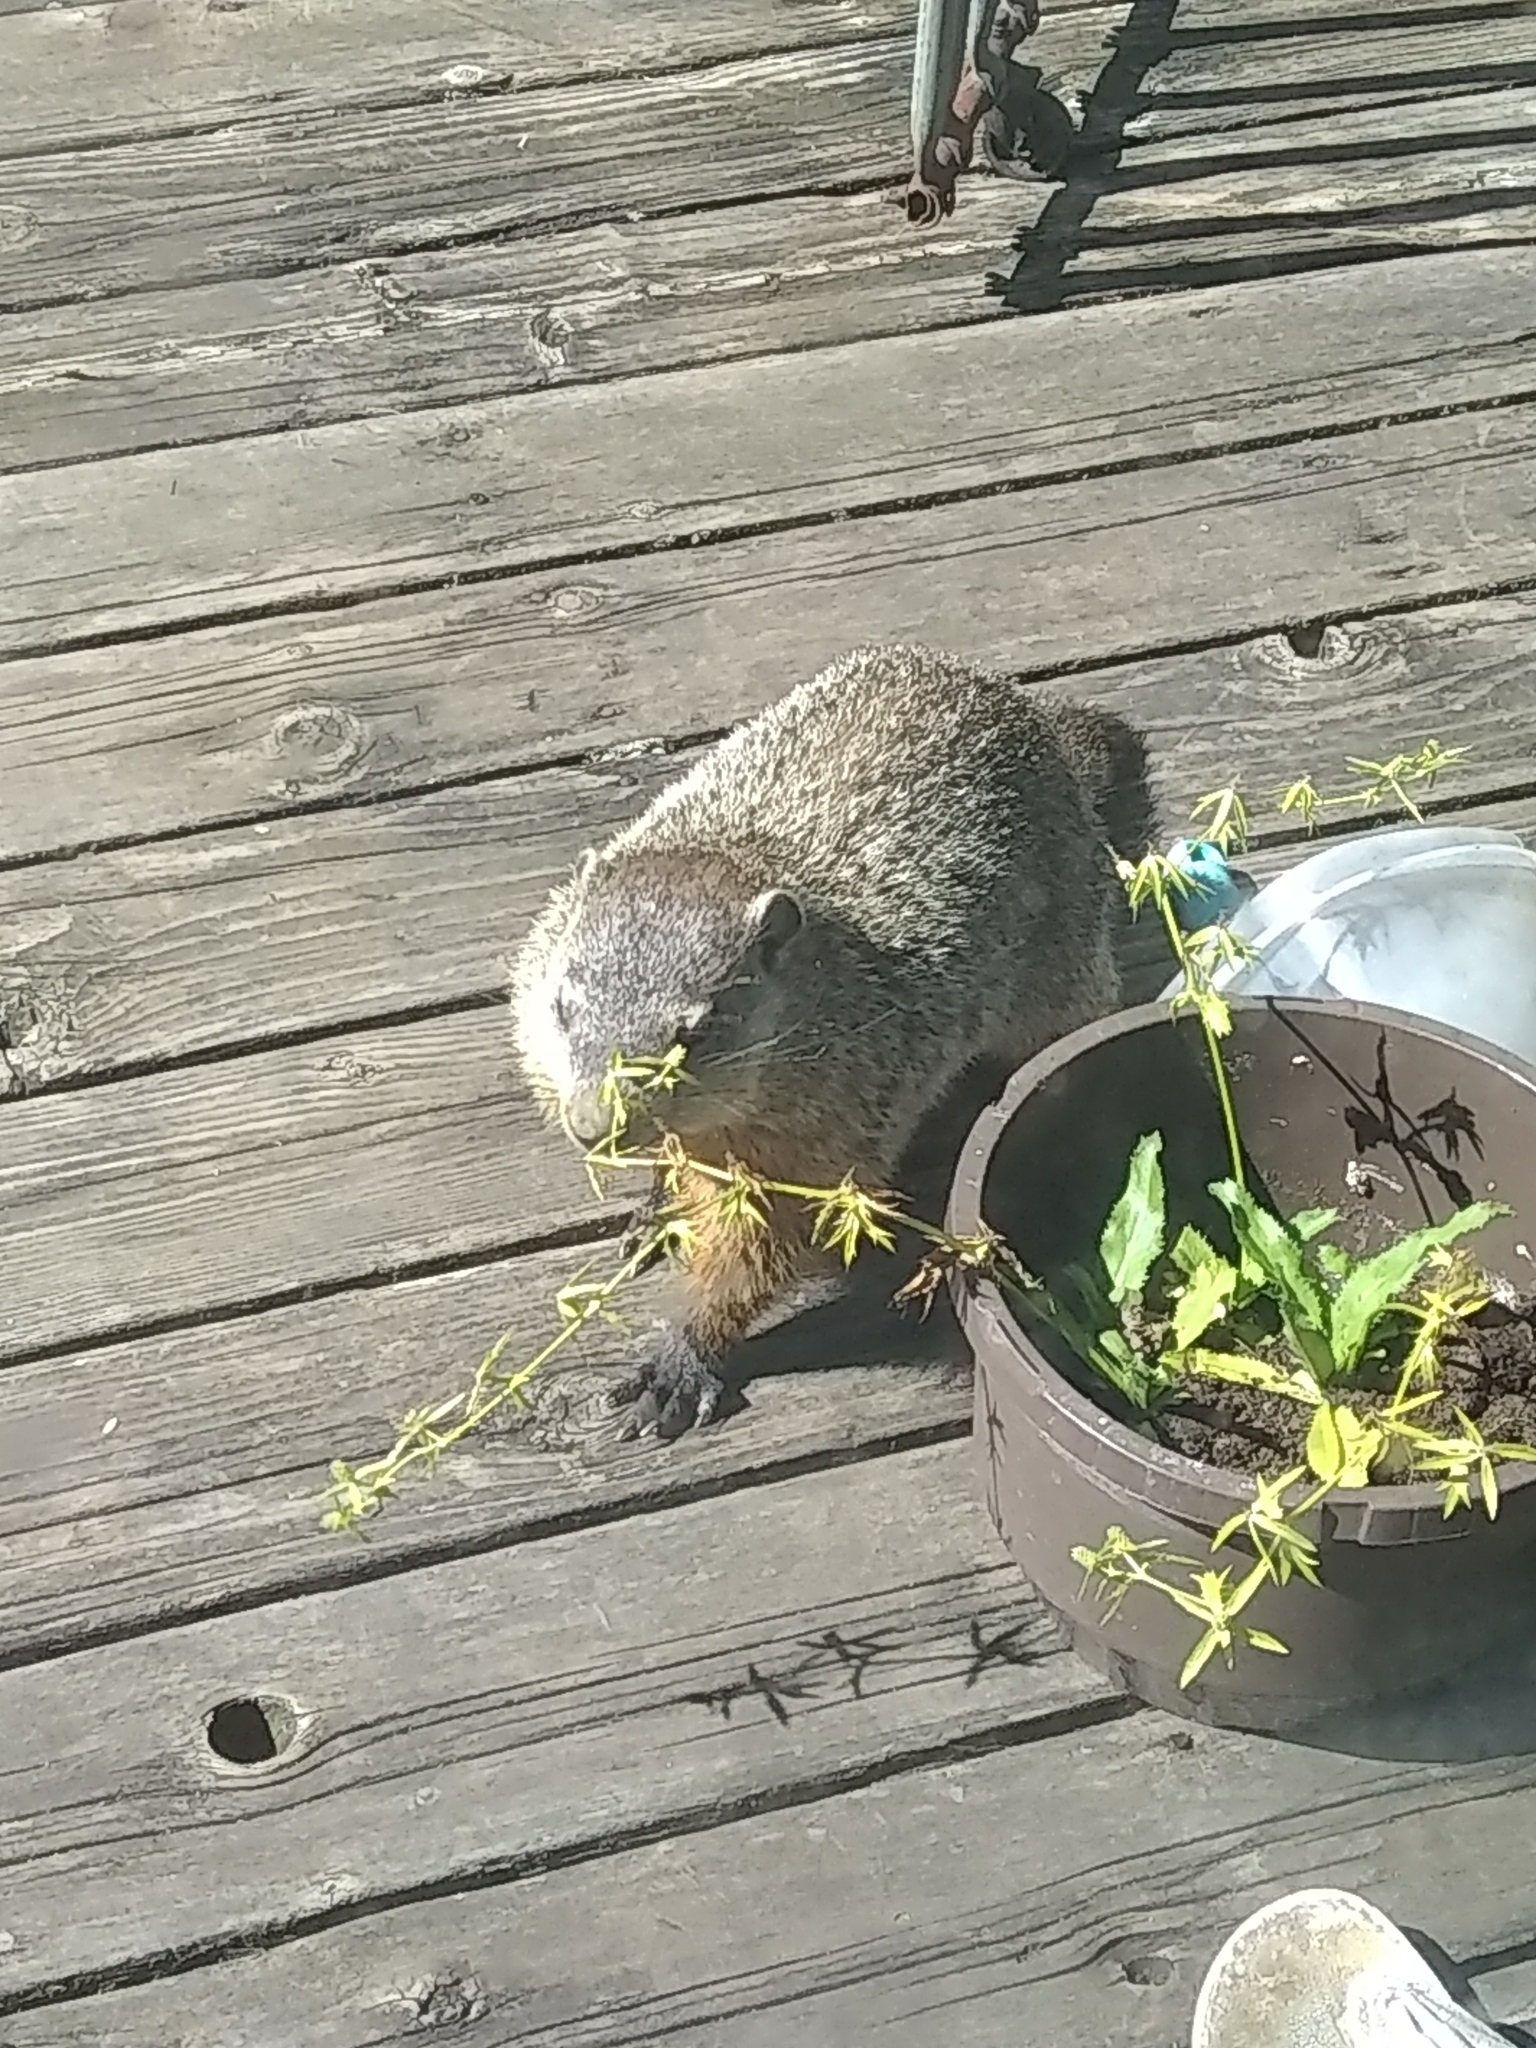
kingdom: Animalia
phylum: Chordata
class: Mammalia
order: Rodentia
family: Sciuridae
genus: Marmota
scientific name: Marmota monax
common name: Groundhog
